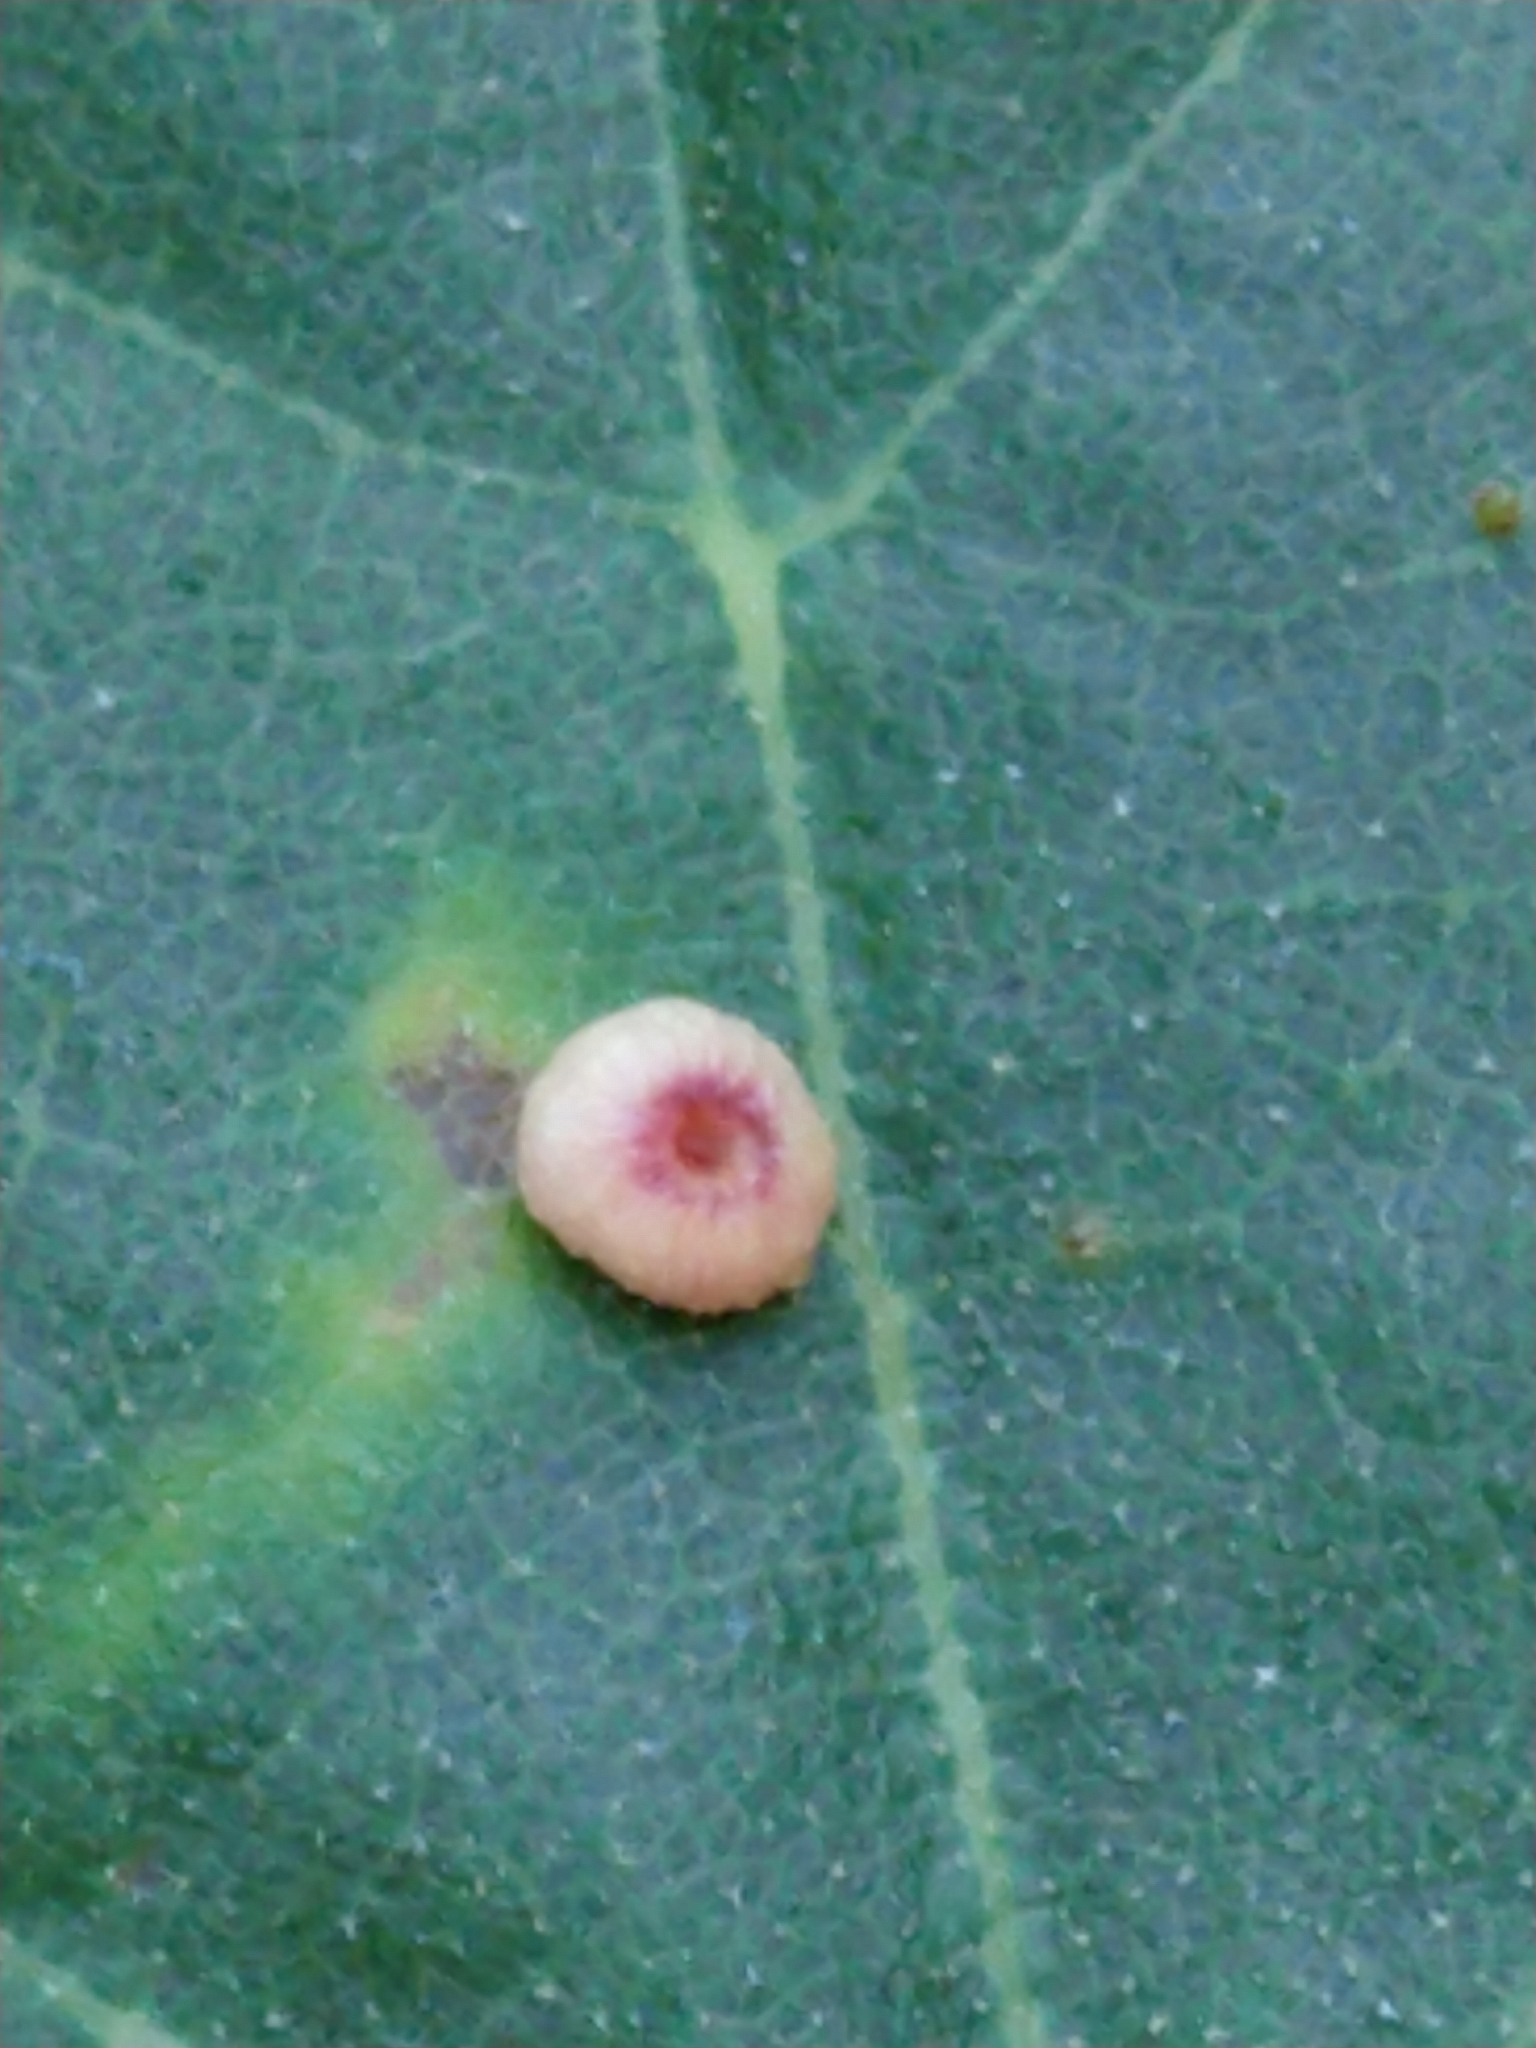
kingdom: Animalia
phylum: Arthropoda
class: Insecta
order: Hymenoptera
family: Cynipidae
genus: Dryocosmus
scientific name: Dryocosmus
